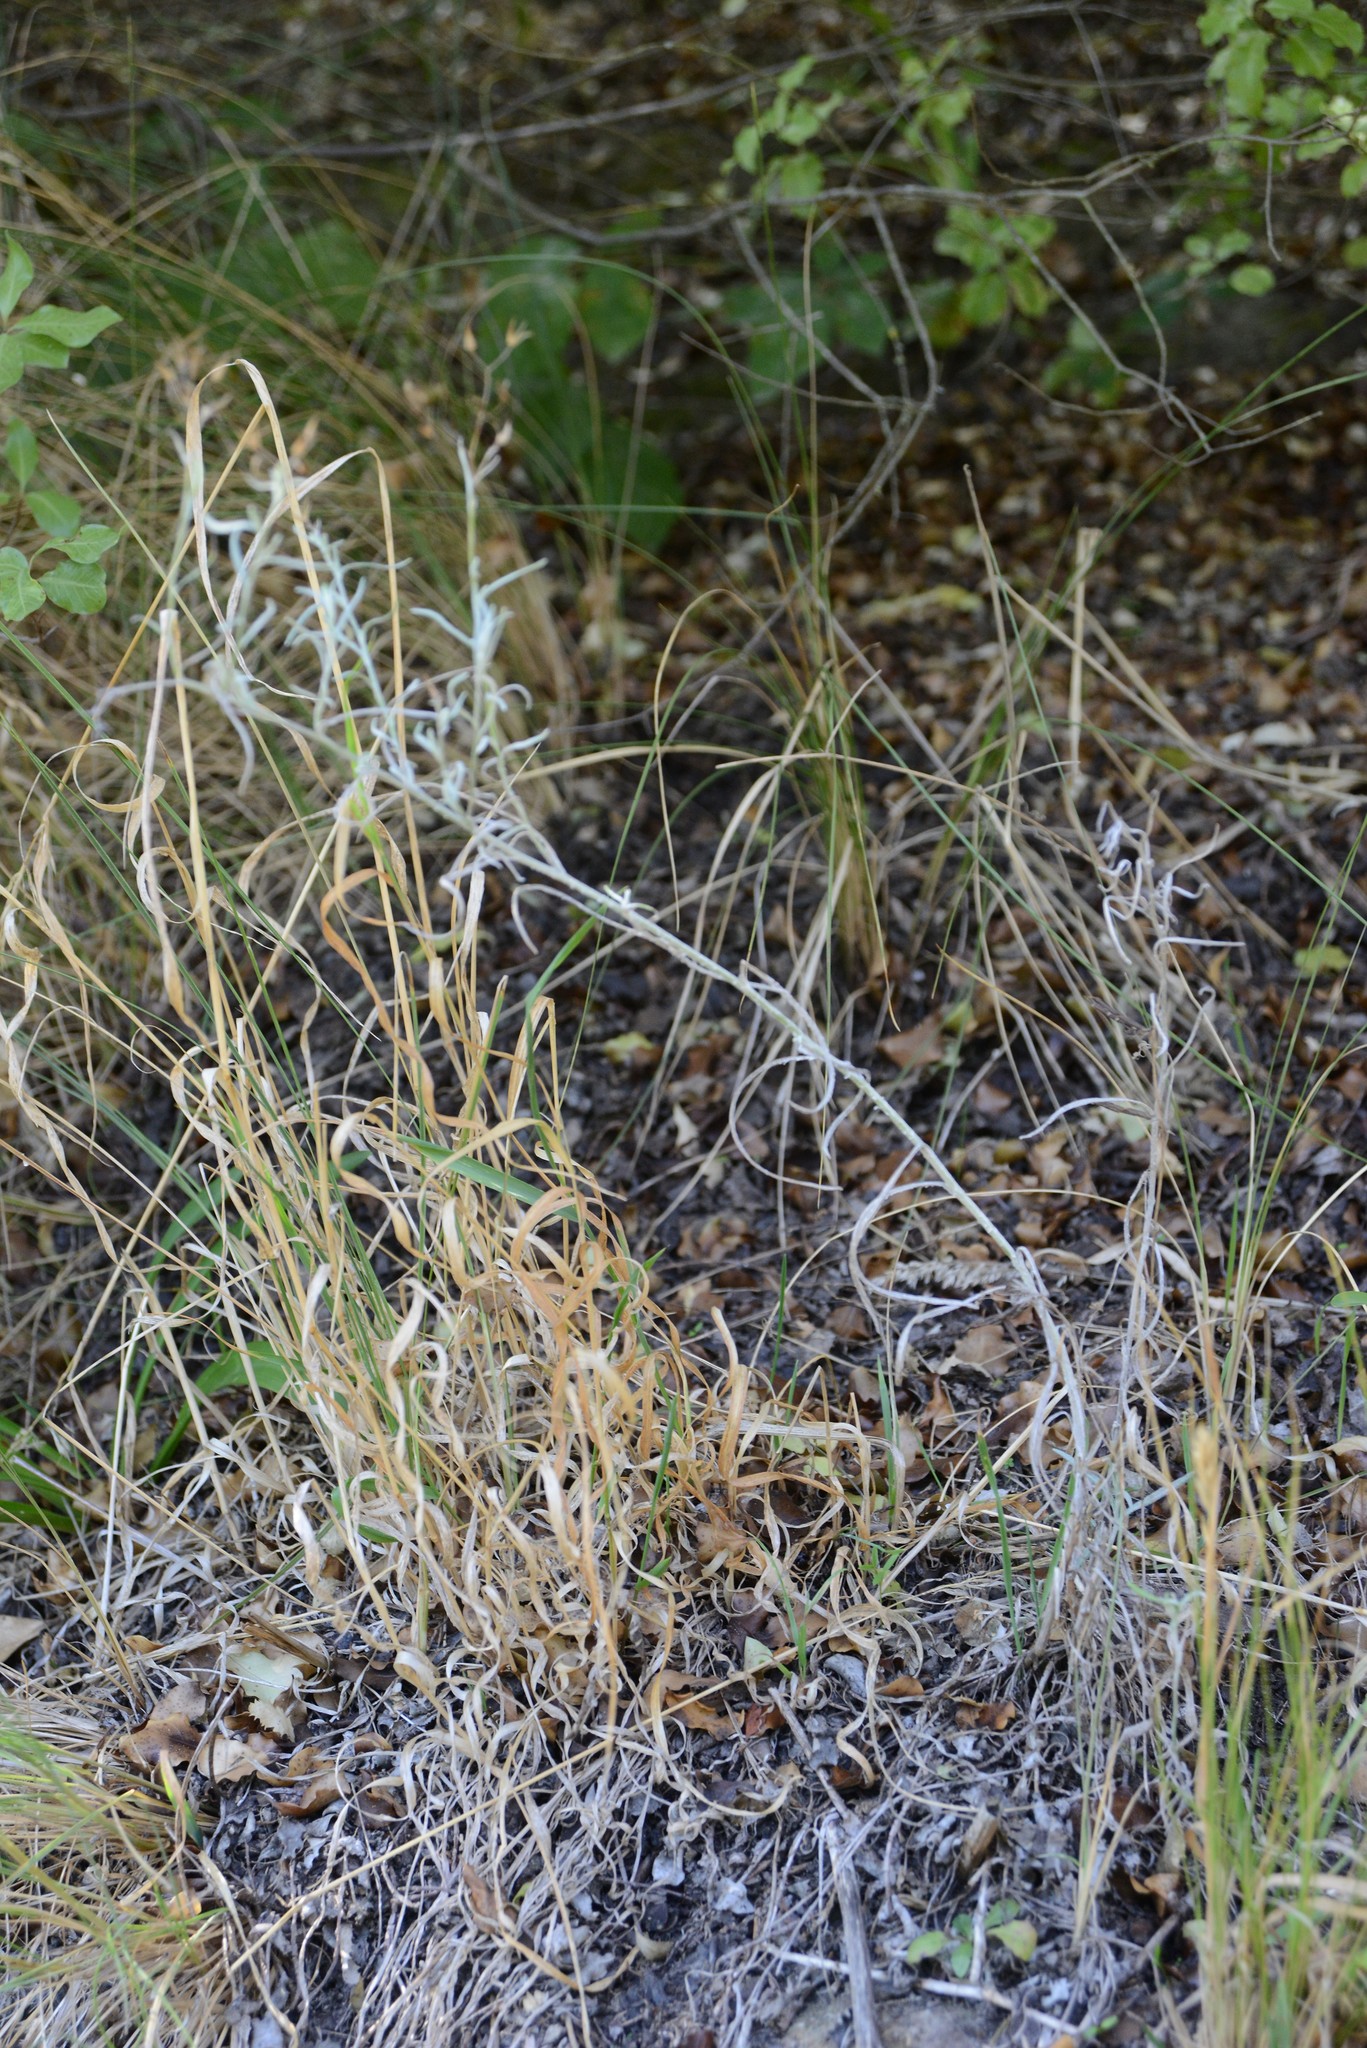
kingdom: Plantae
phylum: Tracheophyta
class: Magnoliopsida
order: Asterales
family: Asteraceae
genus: Senecio
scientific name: Senecio quadridentatus
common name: Cotton fireweed
